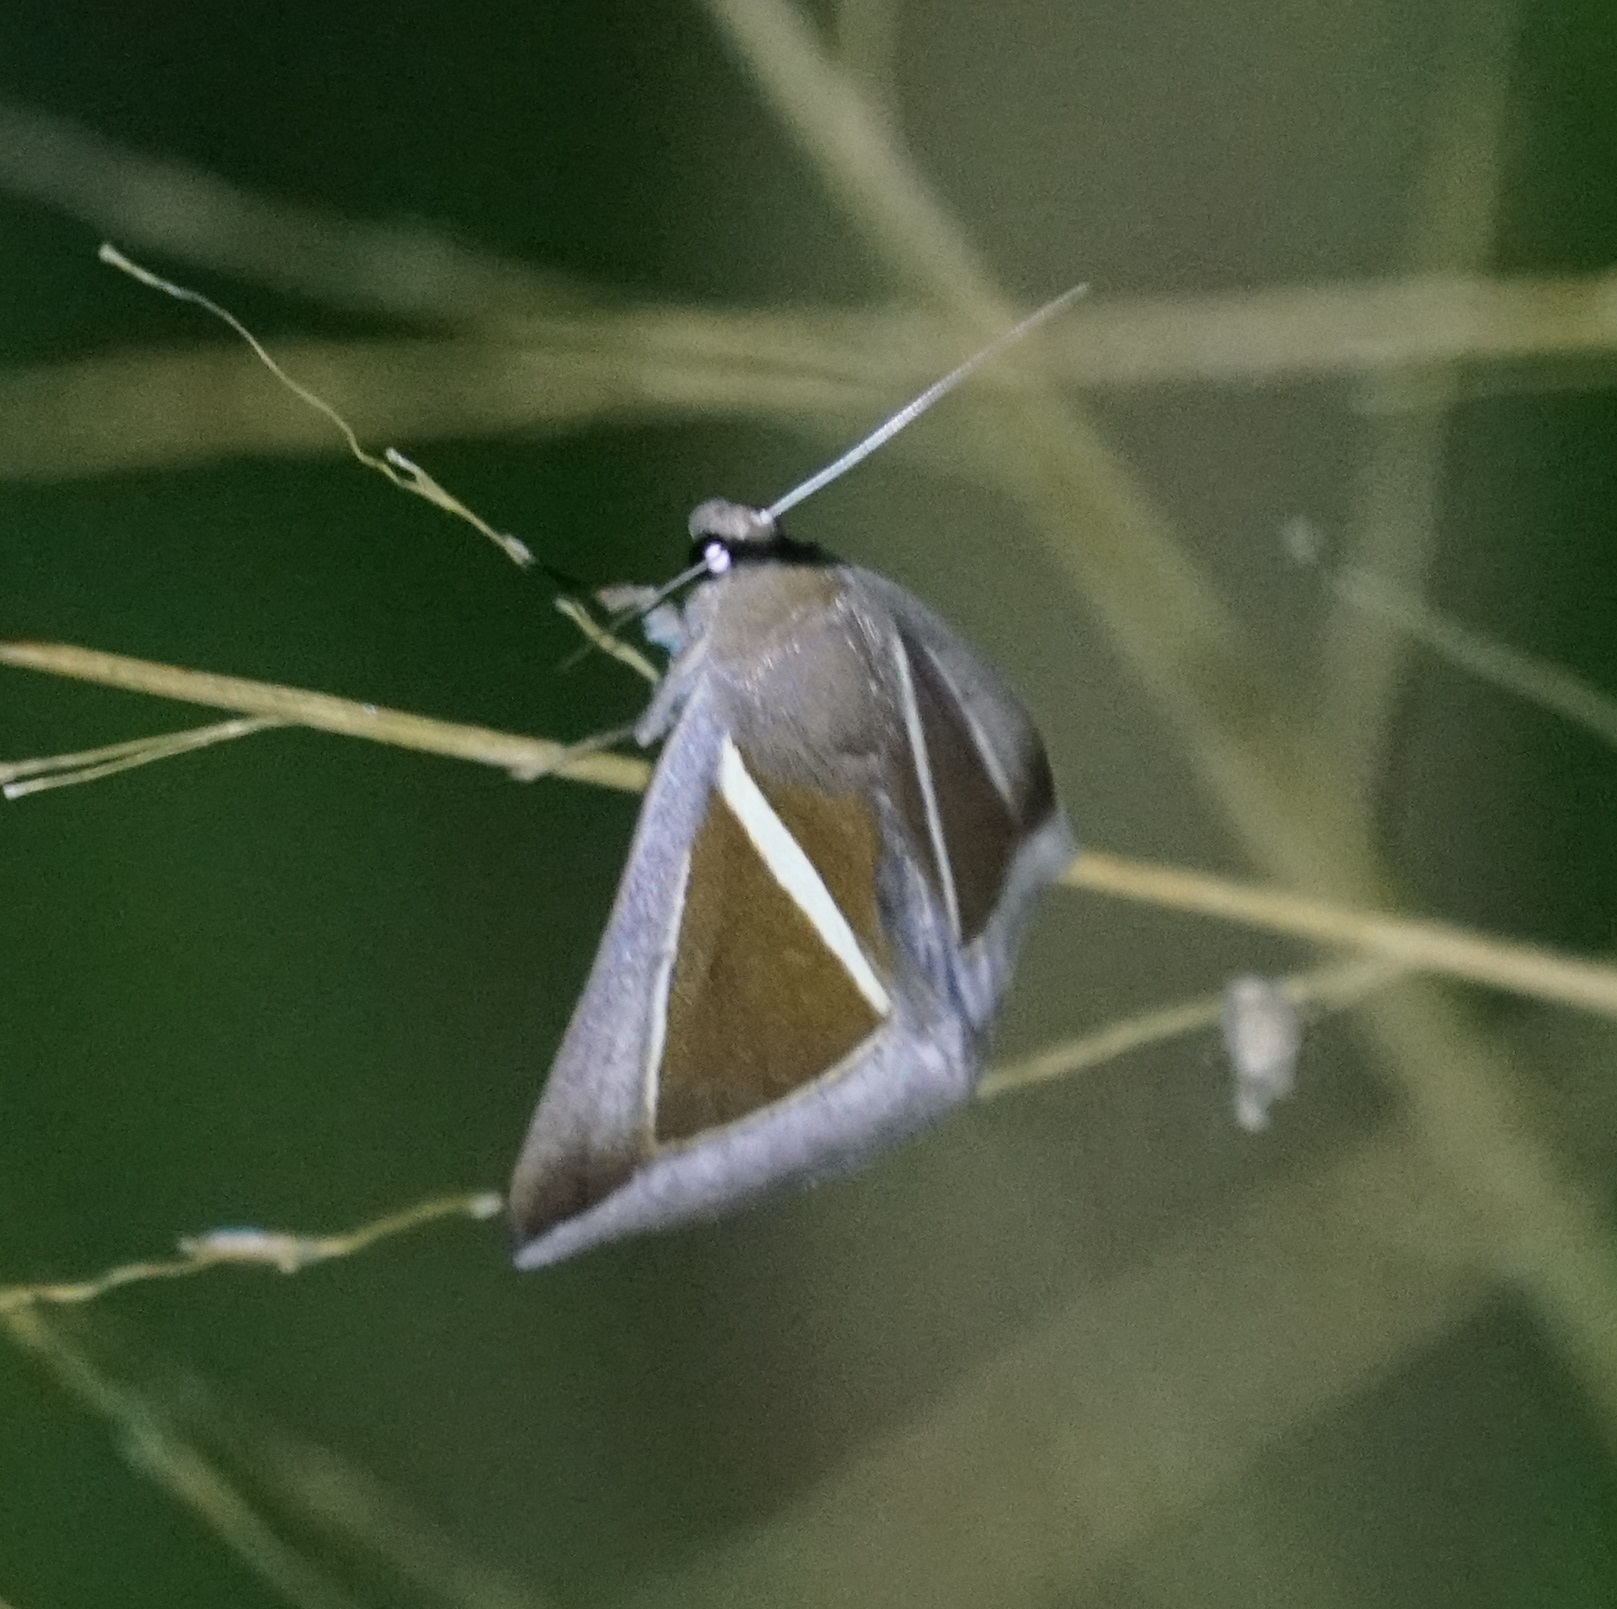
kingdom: Animalia
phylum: Arthropoda
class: Insecta
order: Lepidoptera
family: Erebidae
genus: Chalciope
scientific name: Chalciope alcyona
